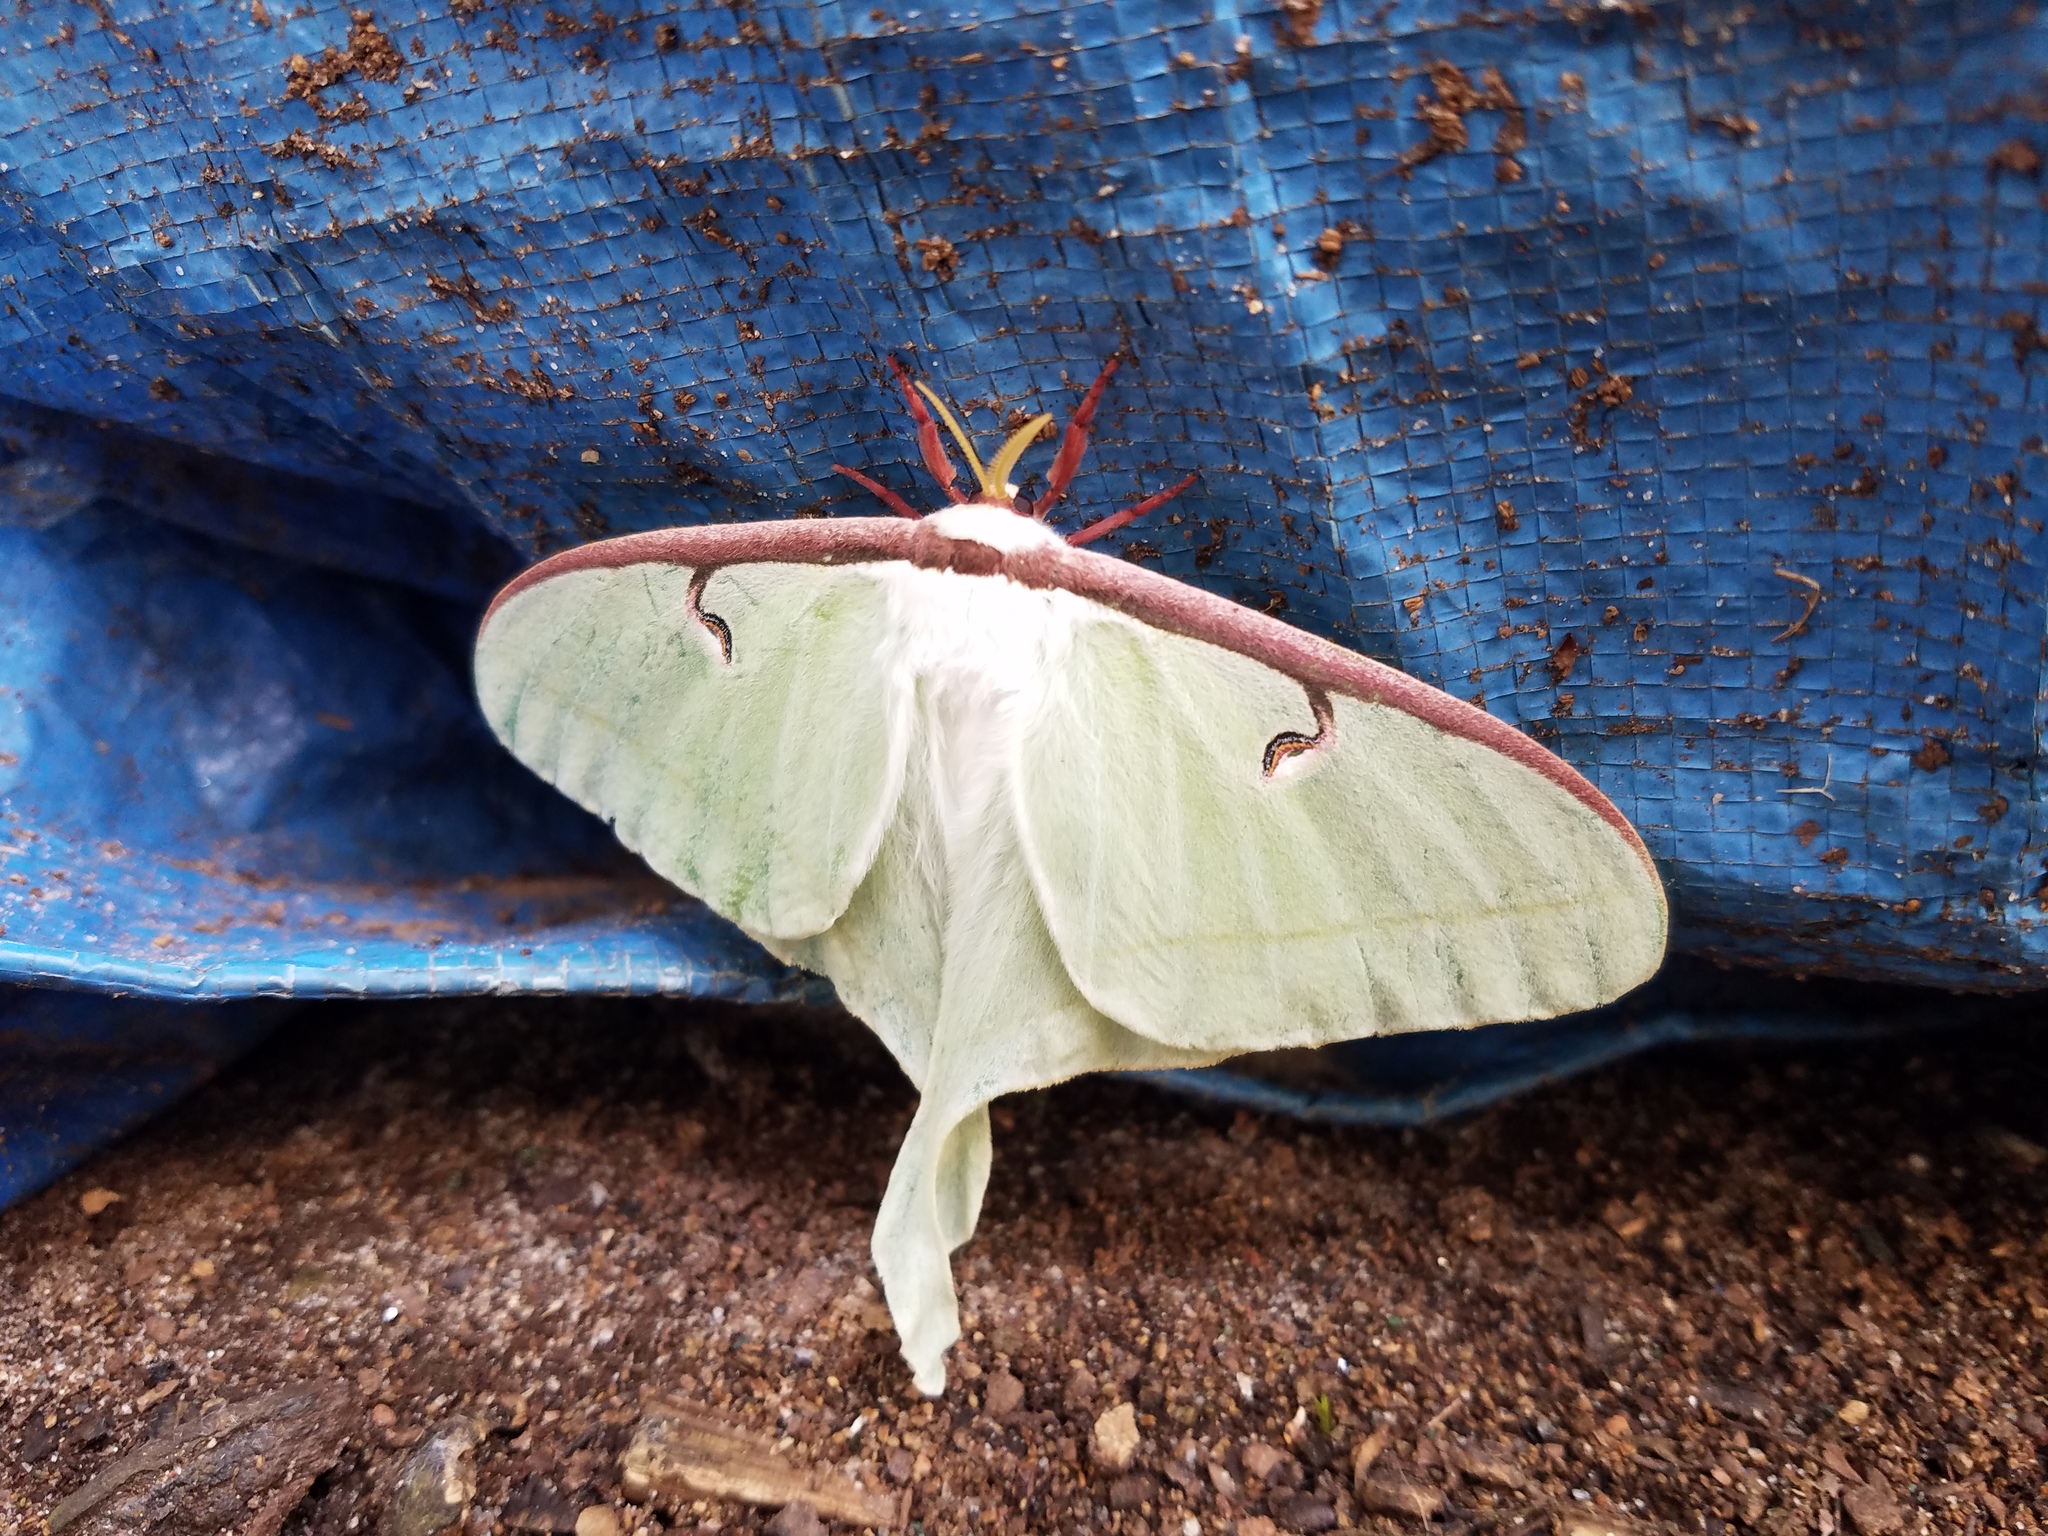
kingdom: Animalia
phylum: Arthropoda
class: Insecta
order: Lepidoptera
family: Saturniidae
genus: Actias
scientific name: Actias luna
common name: Luna moth
